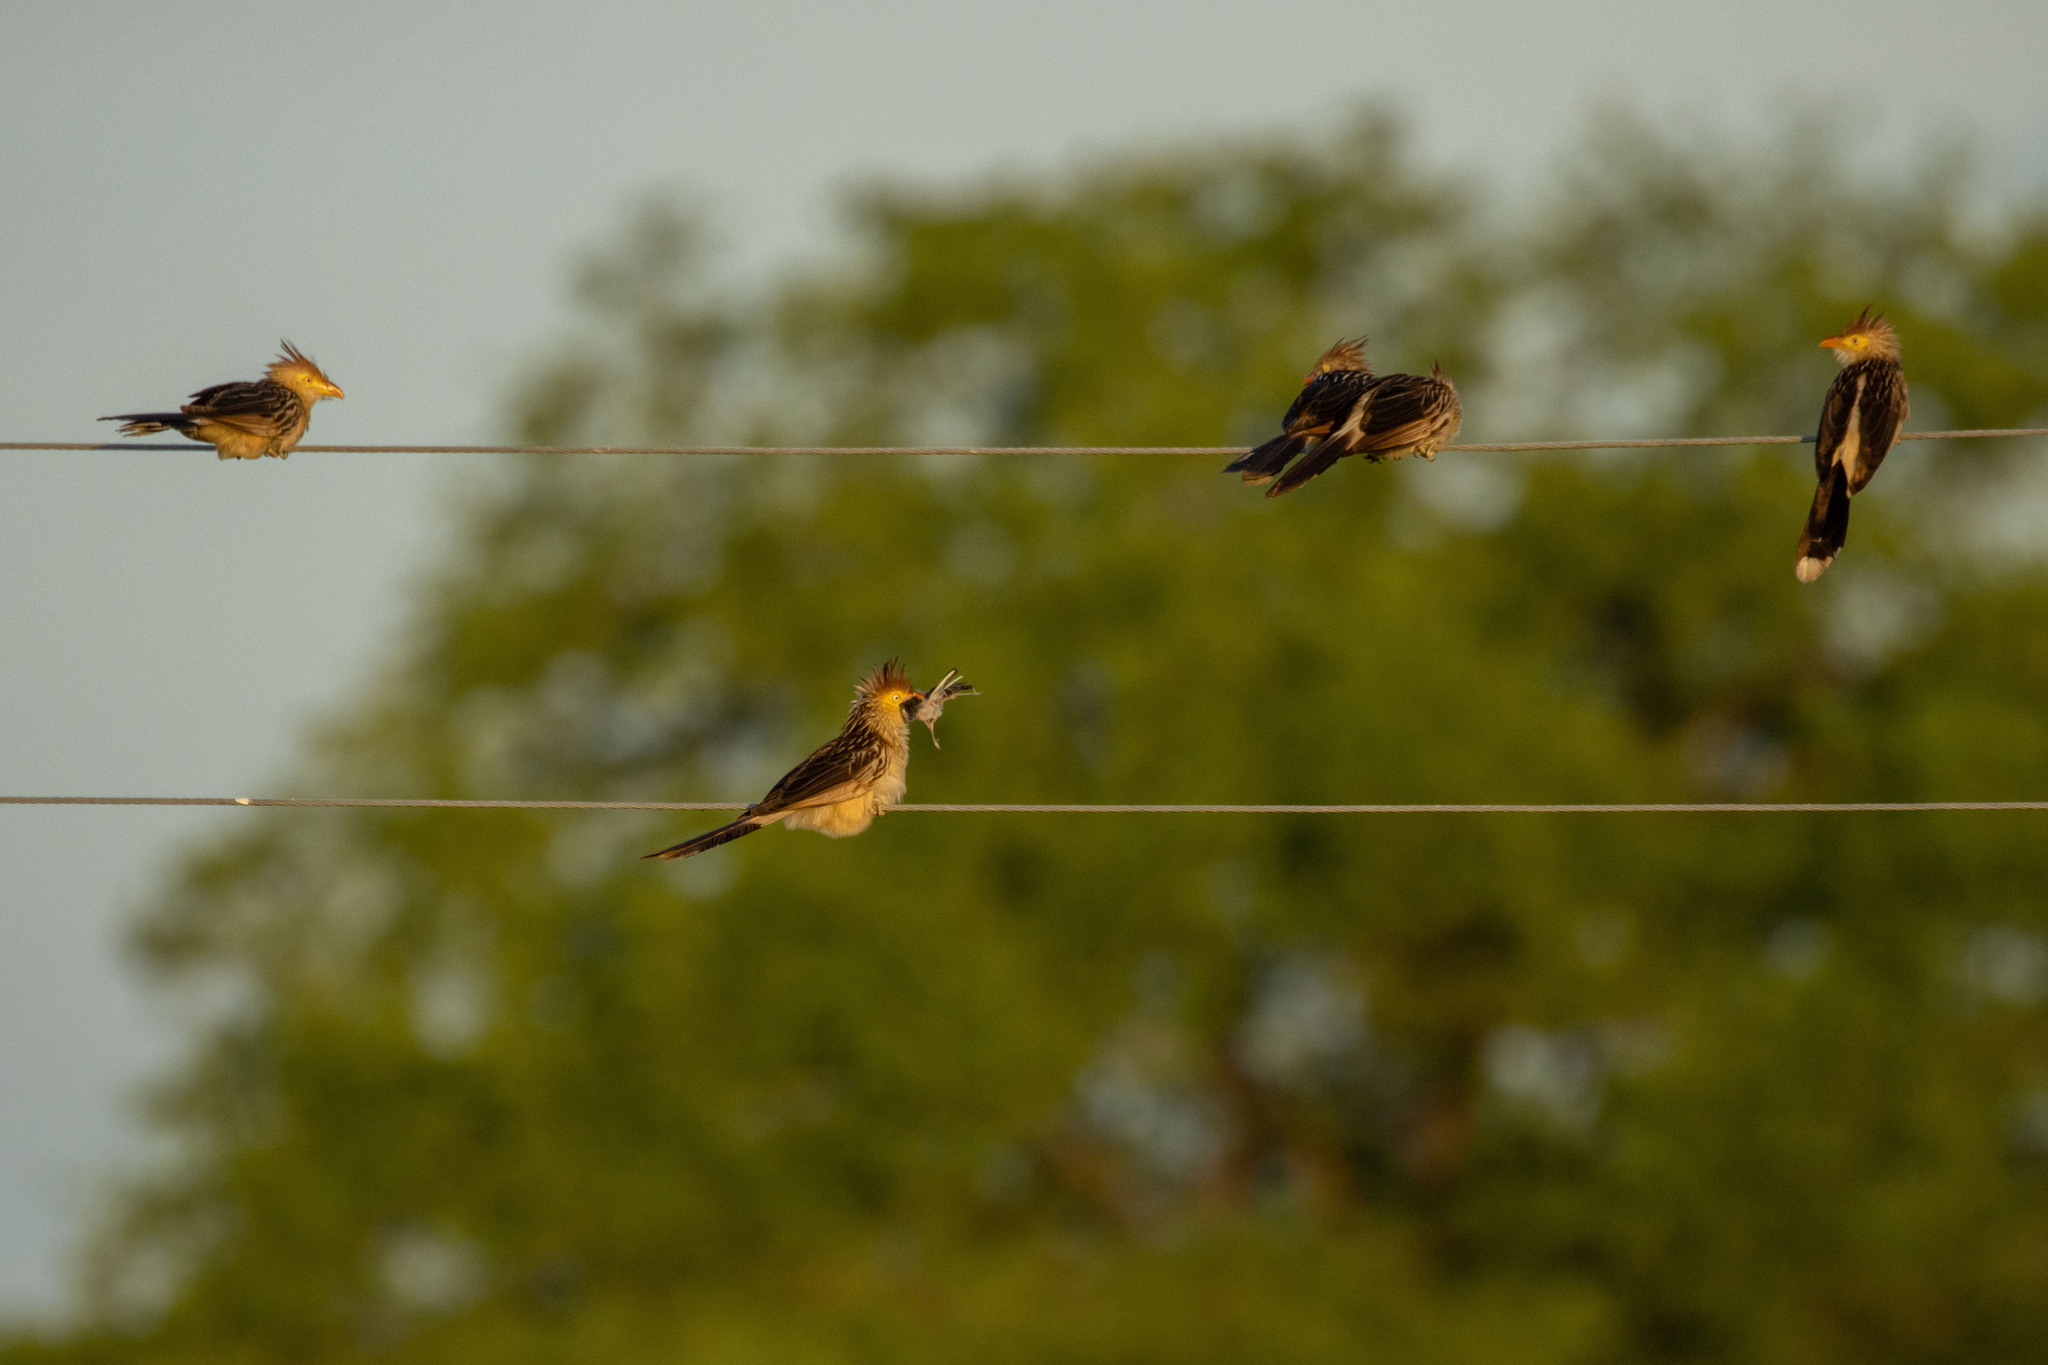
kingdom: Animalia
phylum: Chordata
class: Aves
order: Cuculiformes
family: Cuculidae
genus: Guira
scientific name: Guira guira
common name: Guira cuckoo
